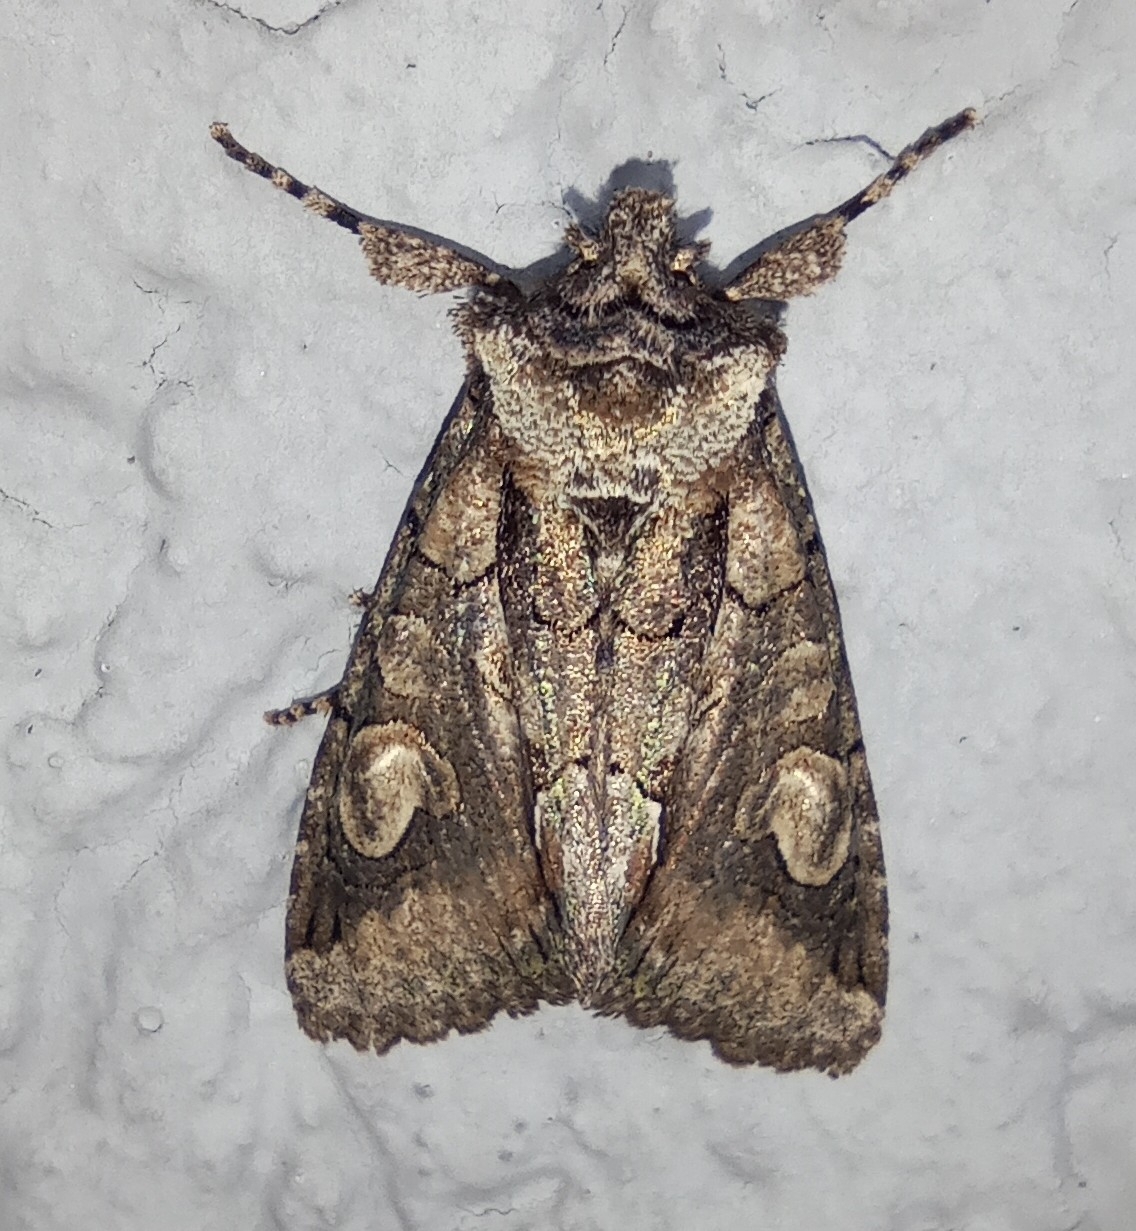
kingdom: Animalia
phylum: Arthropoda
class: Insecta
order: Lepidoptera
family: Noctuidae
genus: Allophyes
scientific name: Allophyes oxyacanthae
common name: Green-brindled crescent
